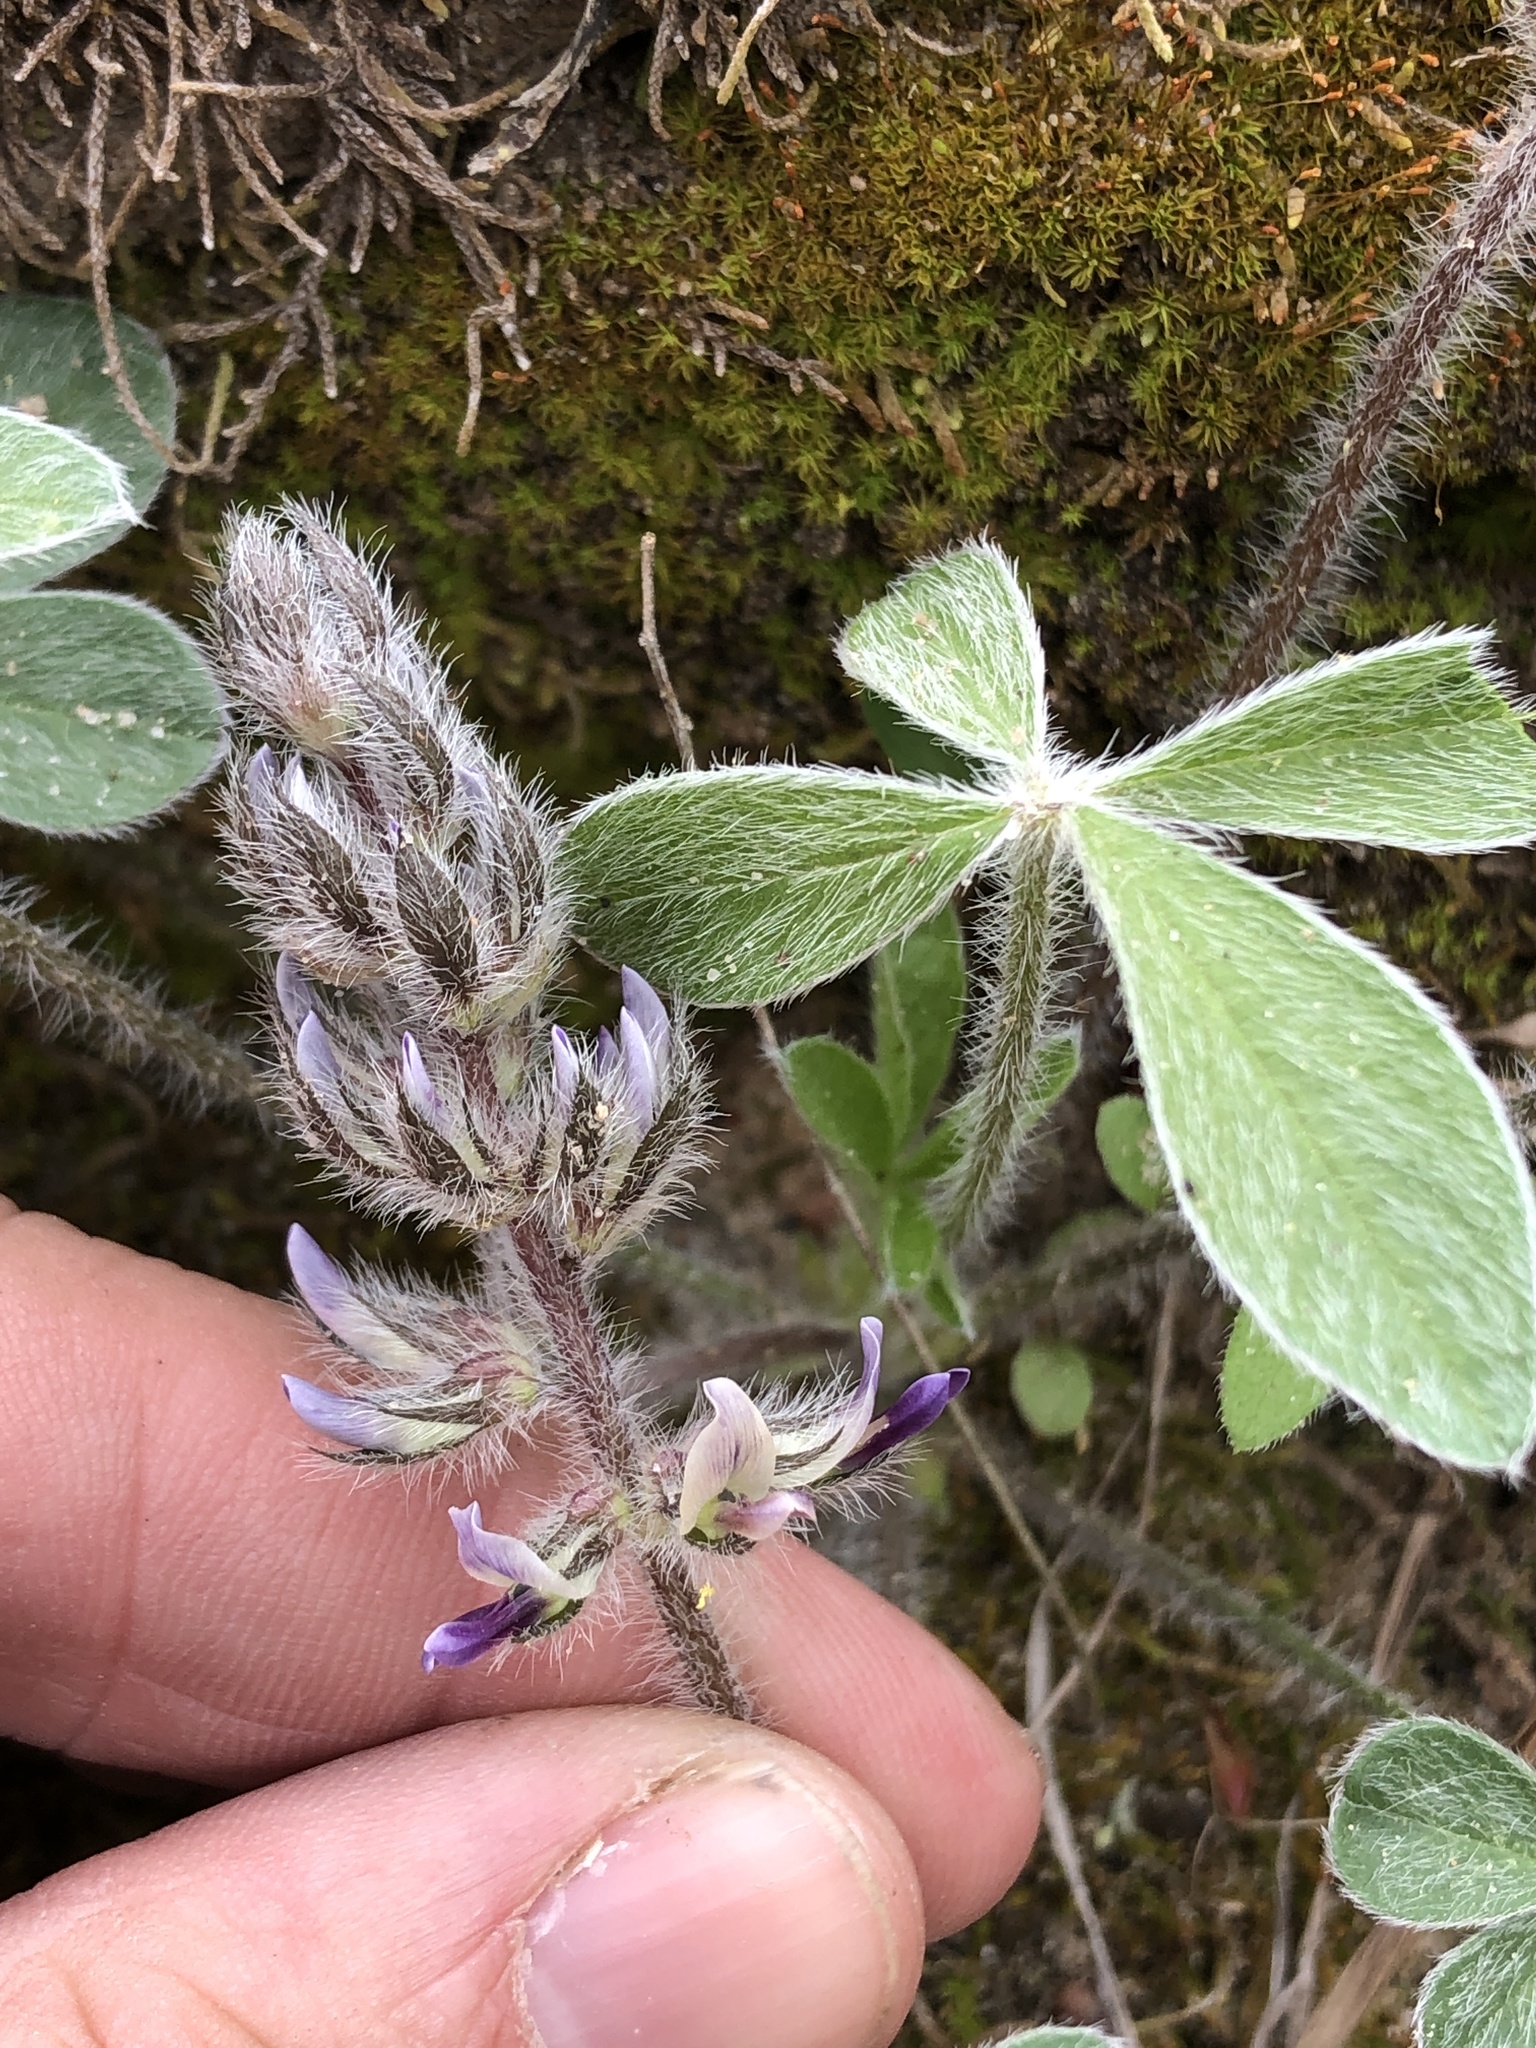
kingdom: Plantae
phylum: Tracheophyta
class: Magnoliopsida
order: Fabales
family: Fabaceae
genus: Pediomelum
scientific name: Pediomelum hypogaeum
